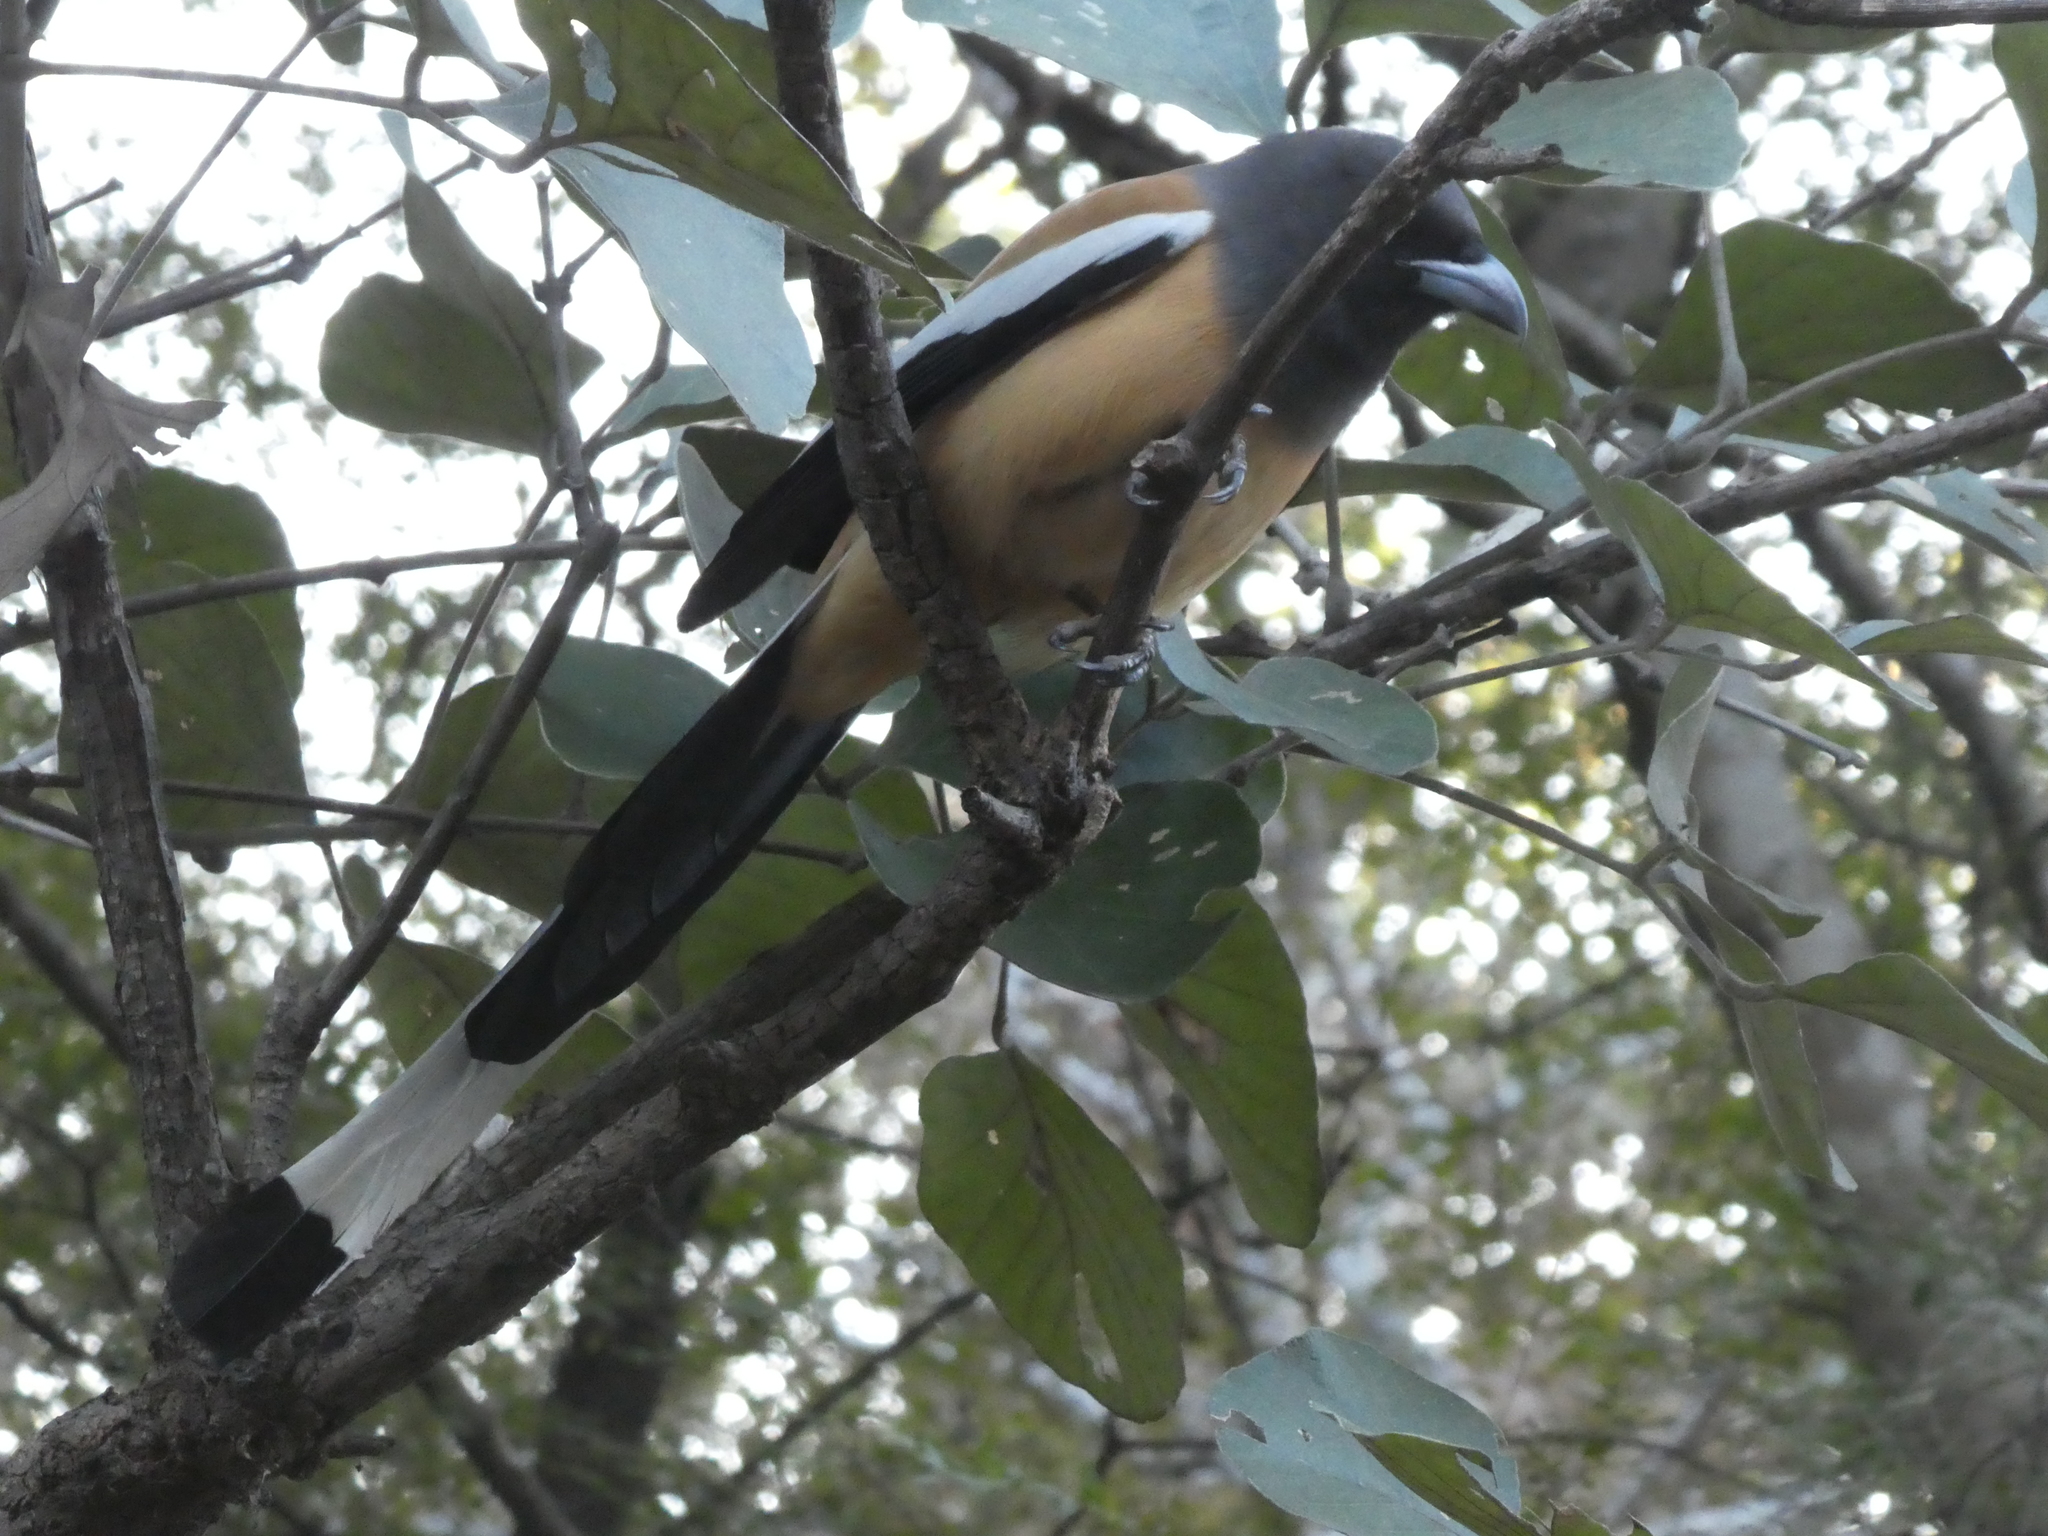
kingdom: Animalia
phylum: Chordata
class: Aves
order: Passeriformes
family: Corvidae
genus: Dendrocitta
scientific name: Dendrocitta vagabunda
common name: Rufous treepie
